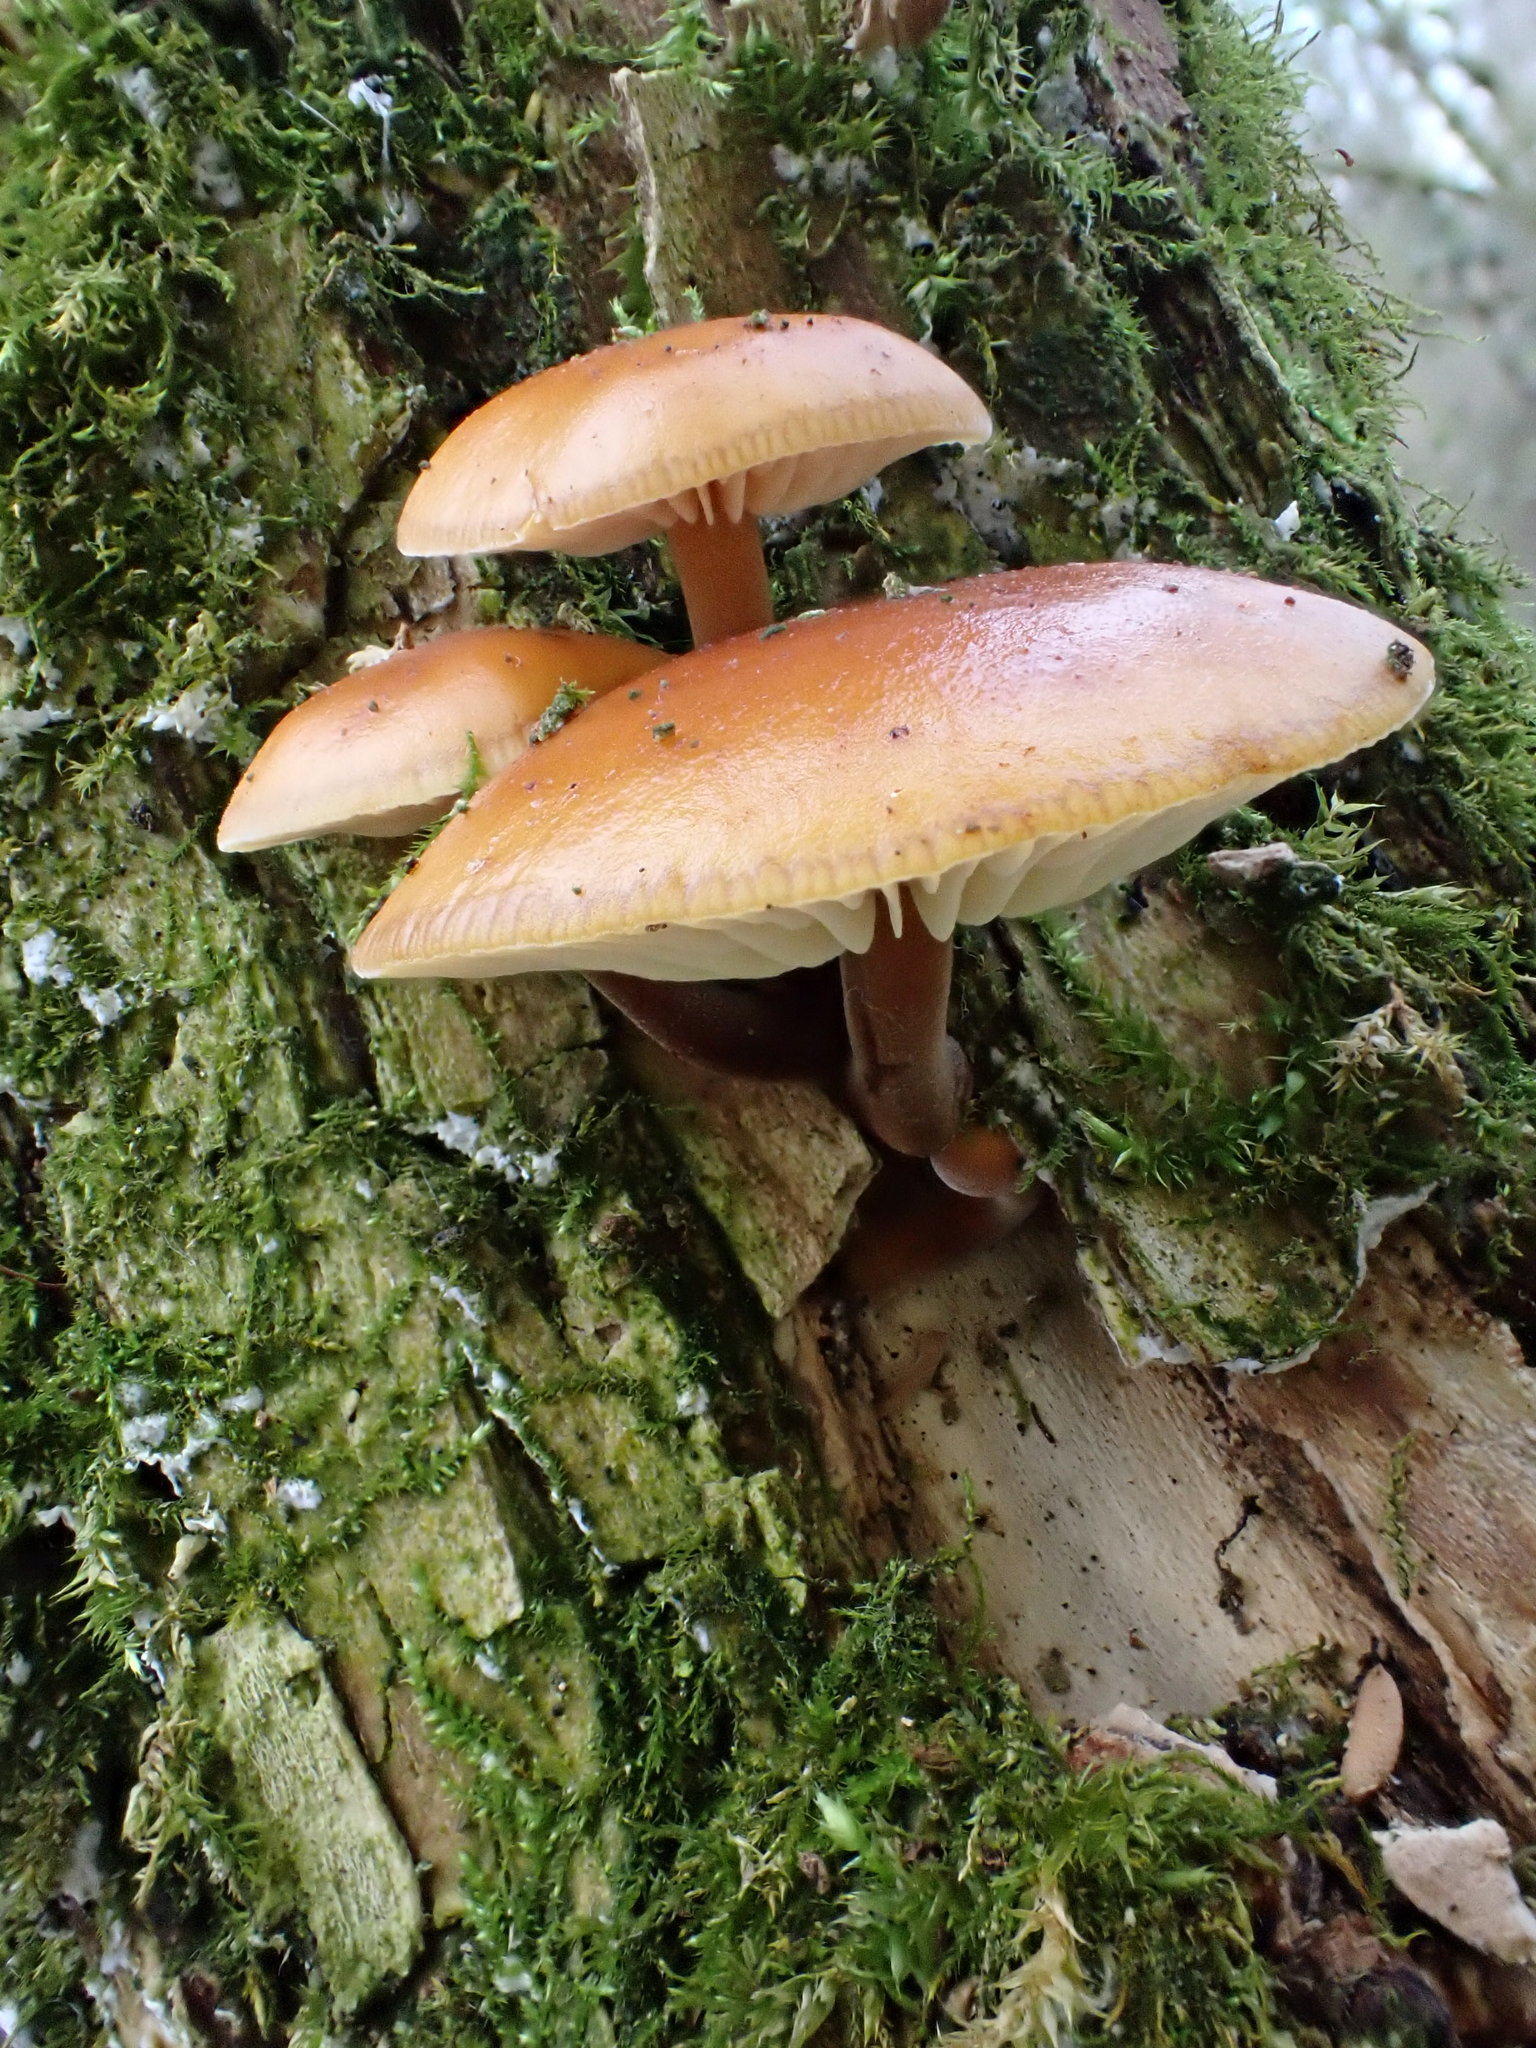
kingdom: Fungi
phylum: Basidiomycota
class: Agaricomycetes
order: Agaricales
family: Physalacriaceae
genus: Flammulina
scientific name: Flammulina
